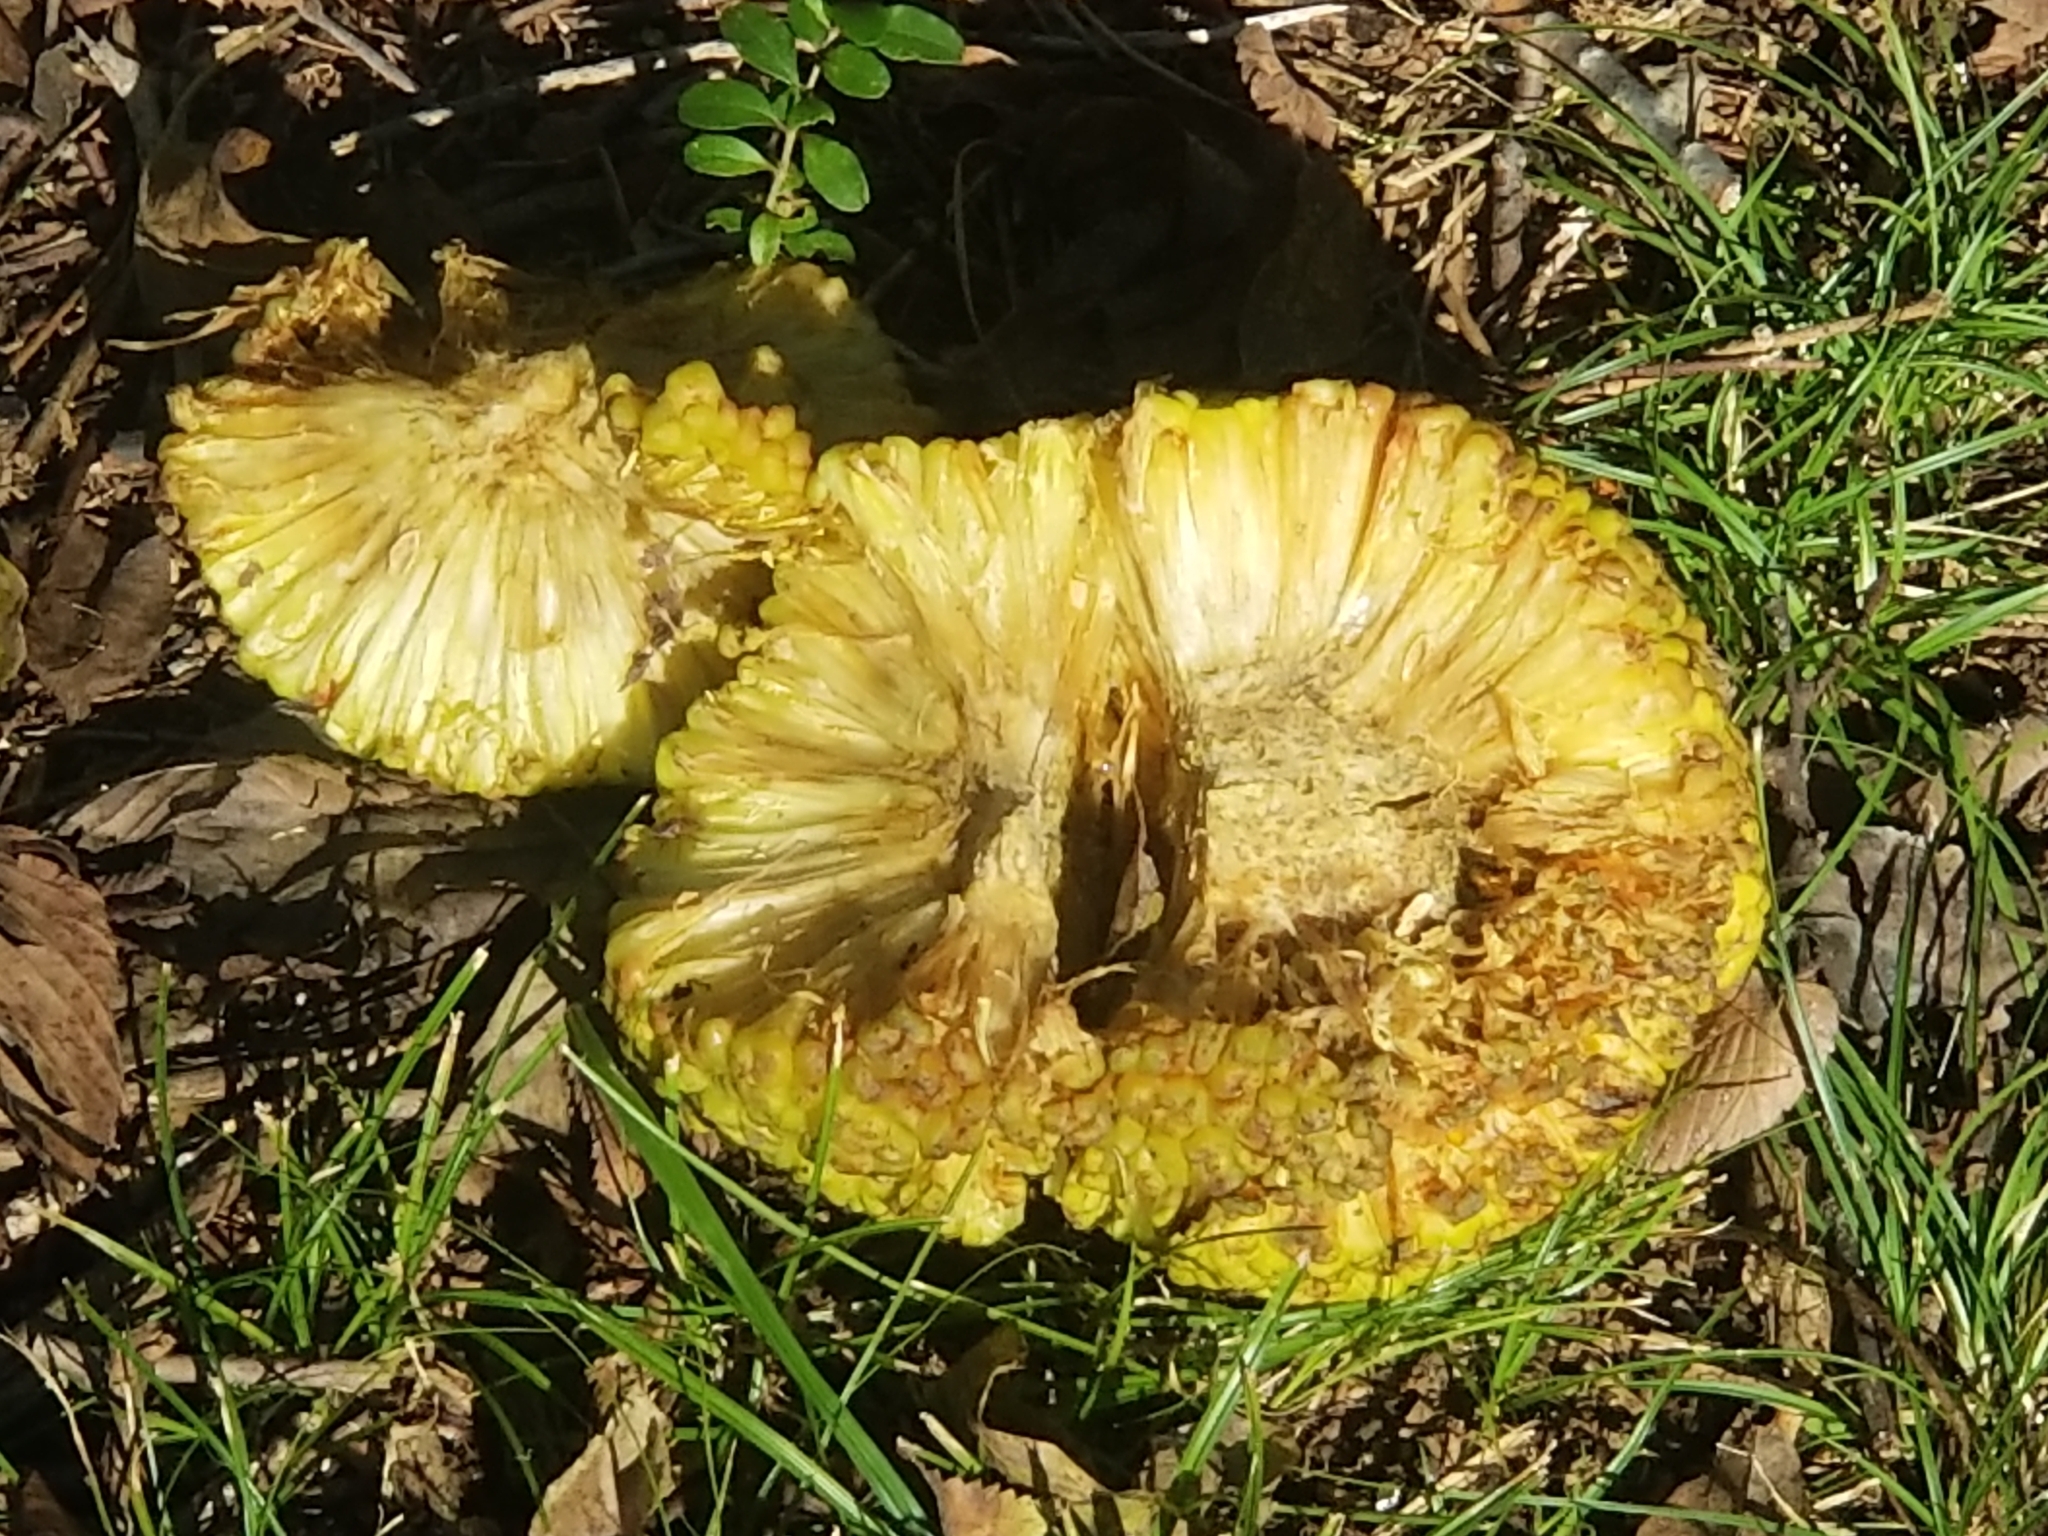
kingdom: Plantae
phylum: Tracheophyta
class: Magnoliopsida
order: Rosales
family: Moraceae
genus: Maclura
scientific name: Maclura pomifera
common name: Osage-orange
